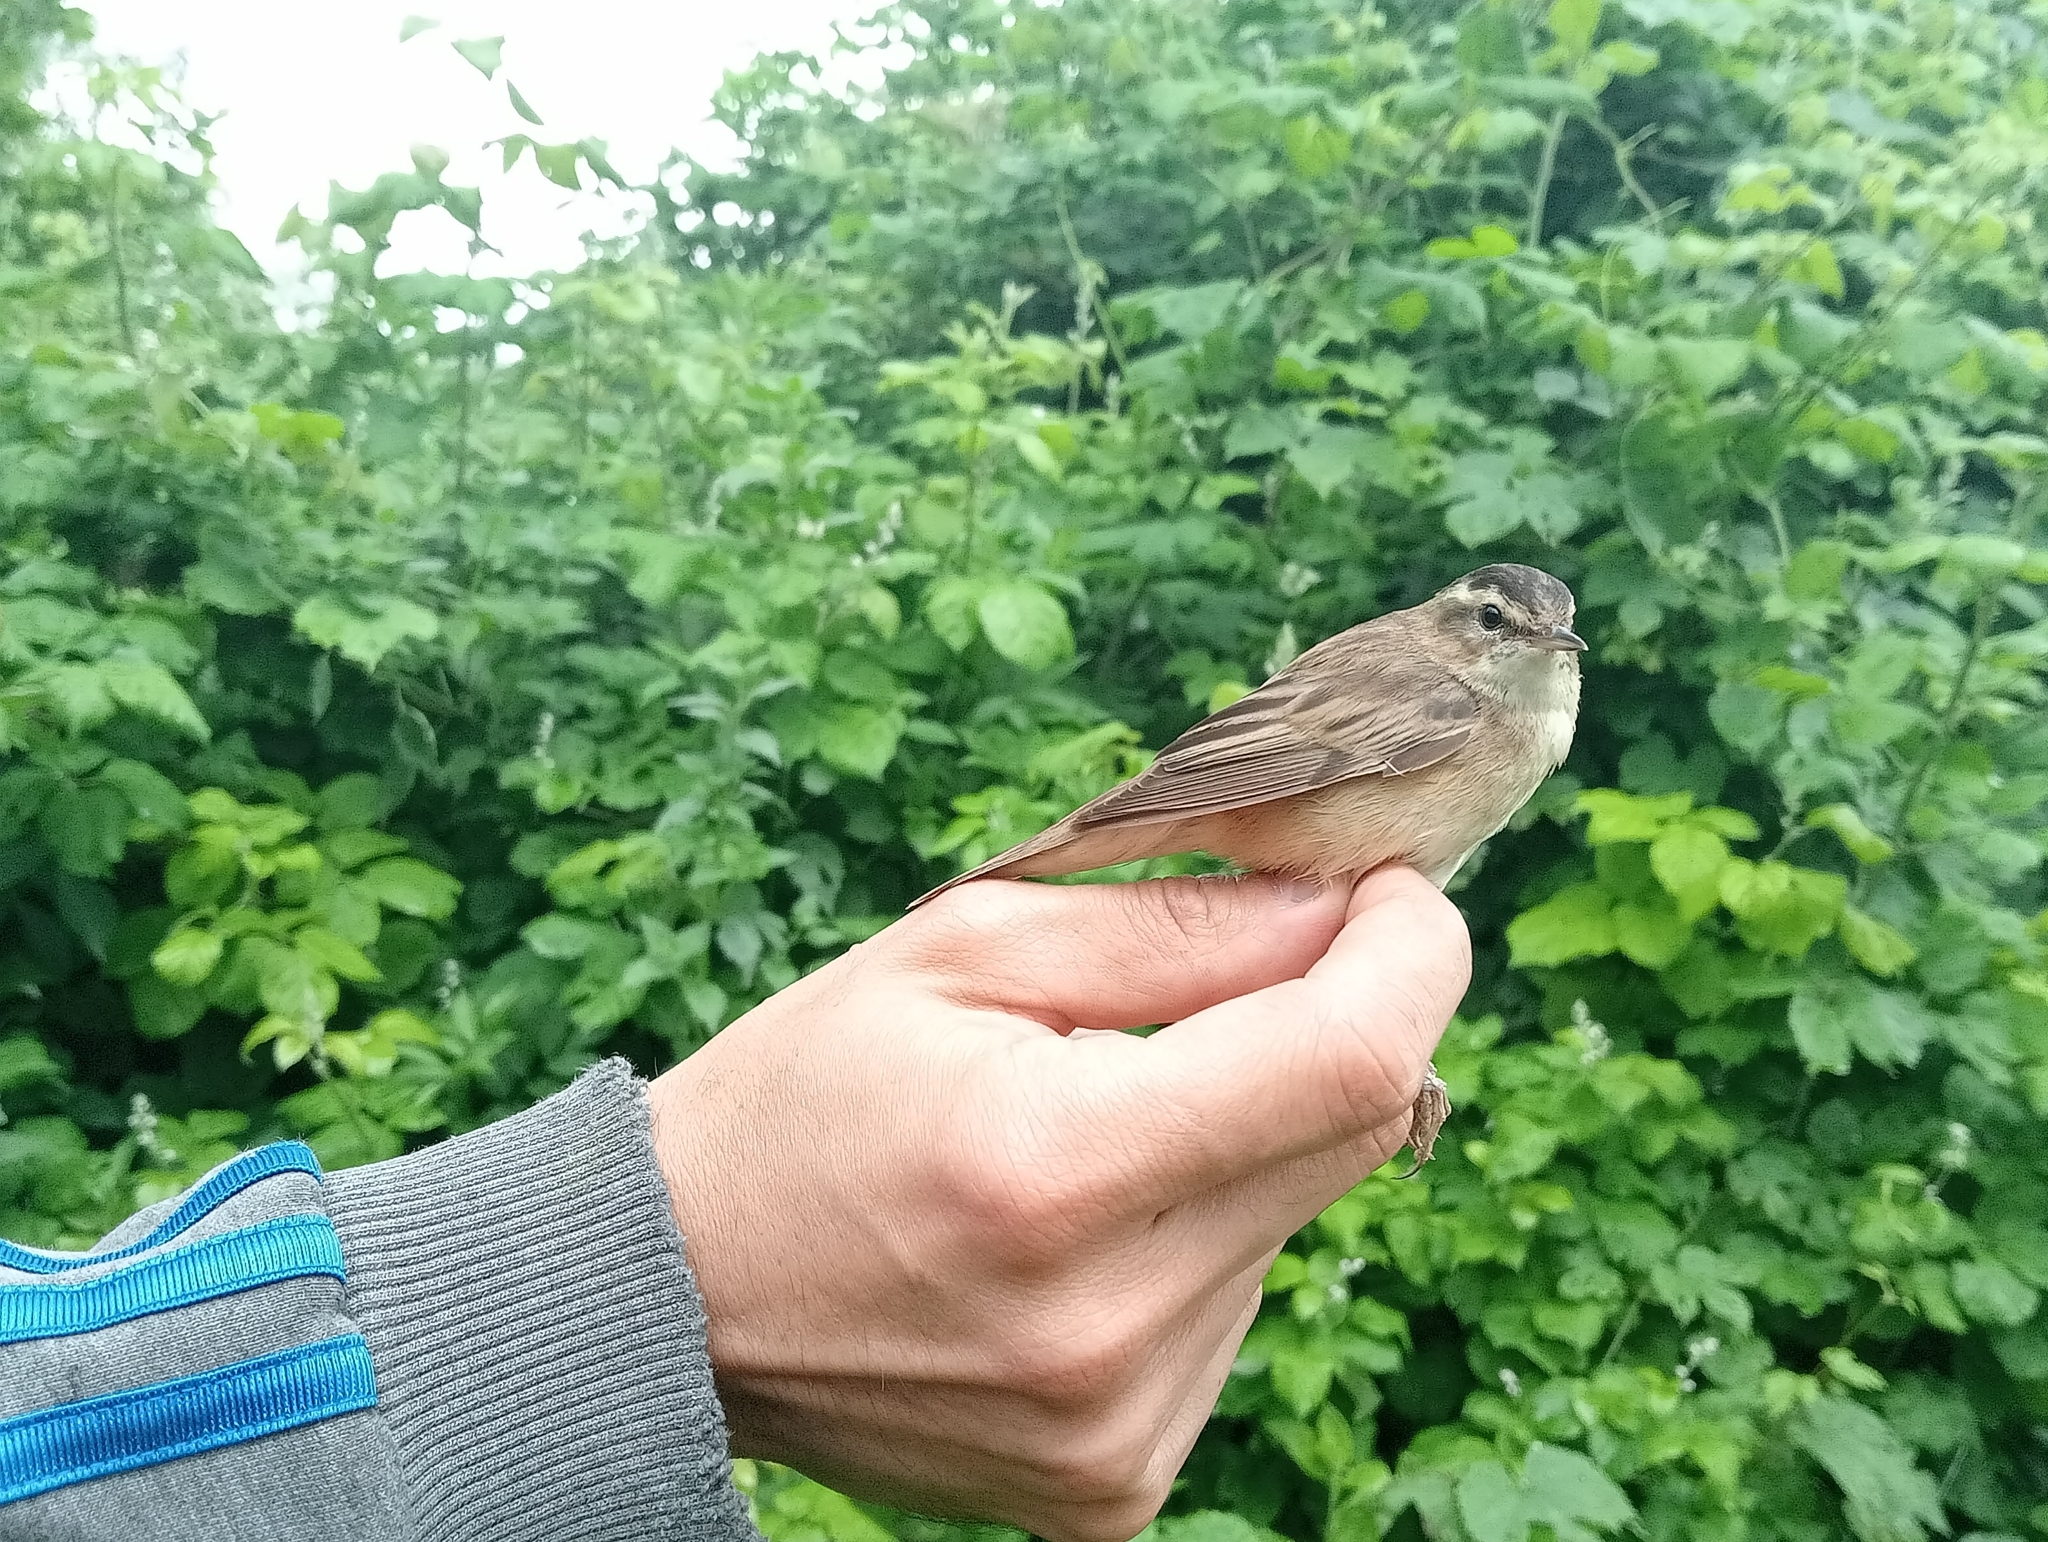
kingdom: Animalia
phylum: Chordata
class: Aves
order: Passeriformes
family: Acrocephalidae
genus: Acrocephalus
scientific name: Acrocephalus schoenobaenus
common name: Sedge warbler
